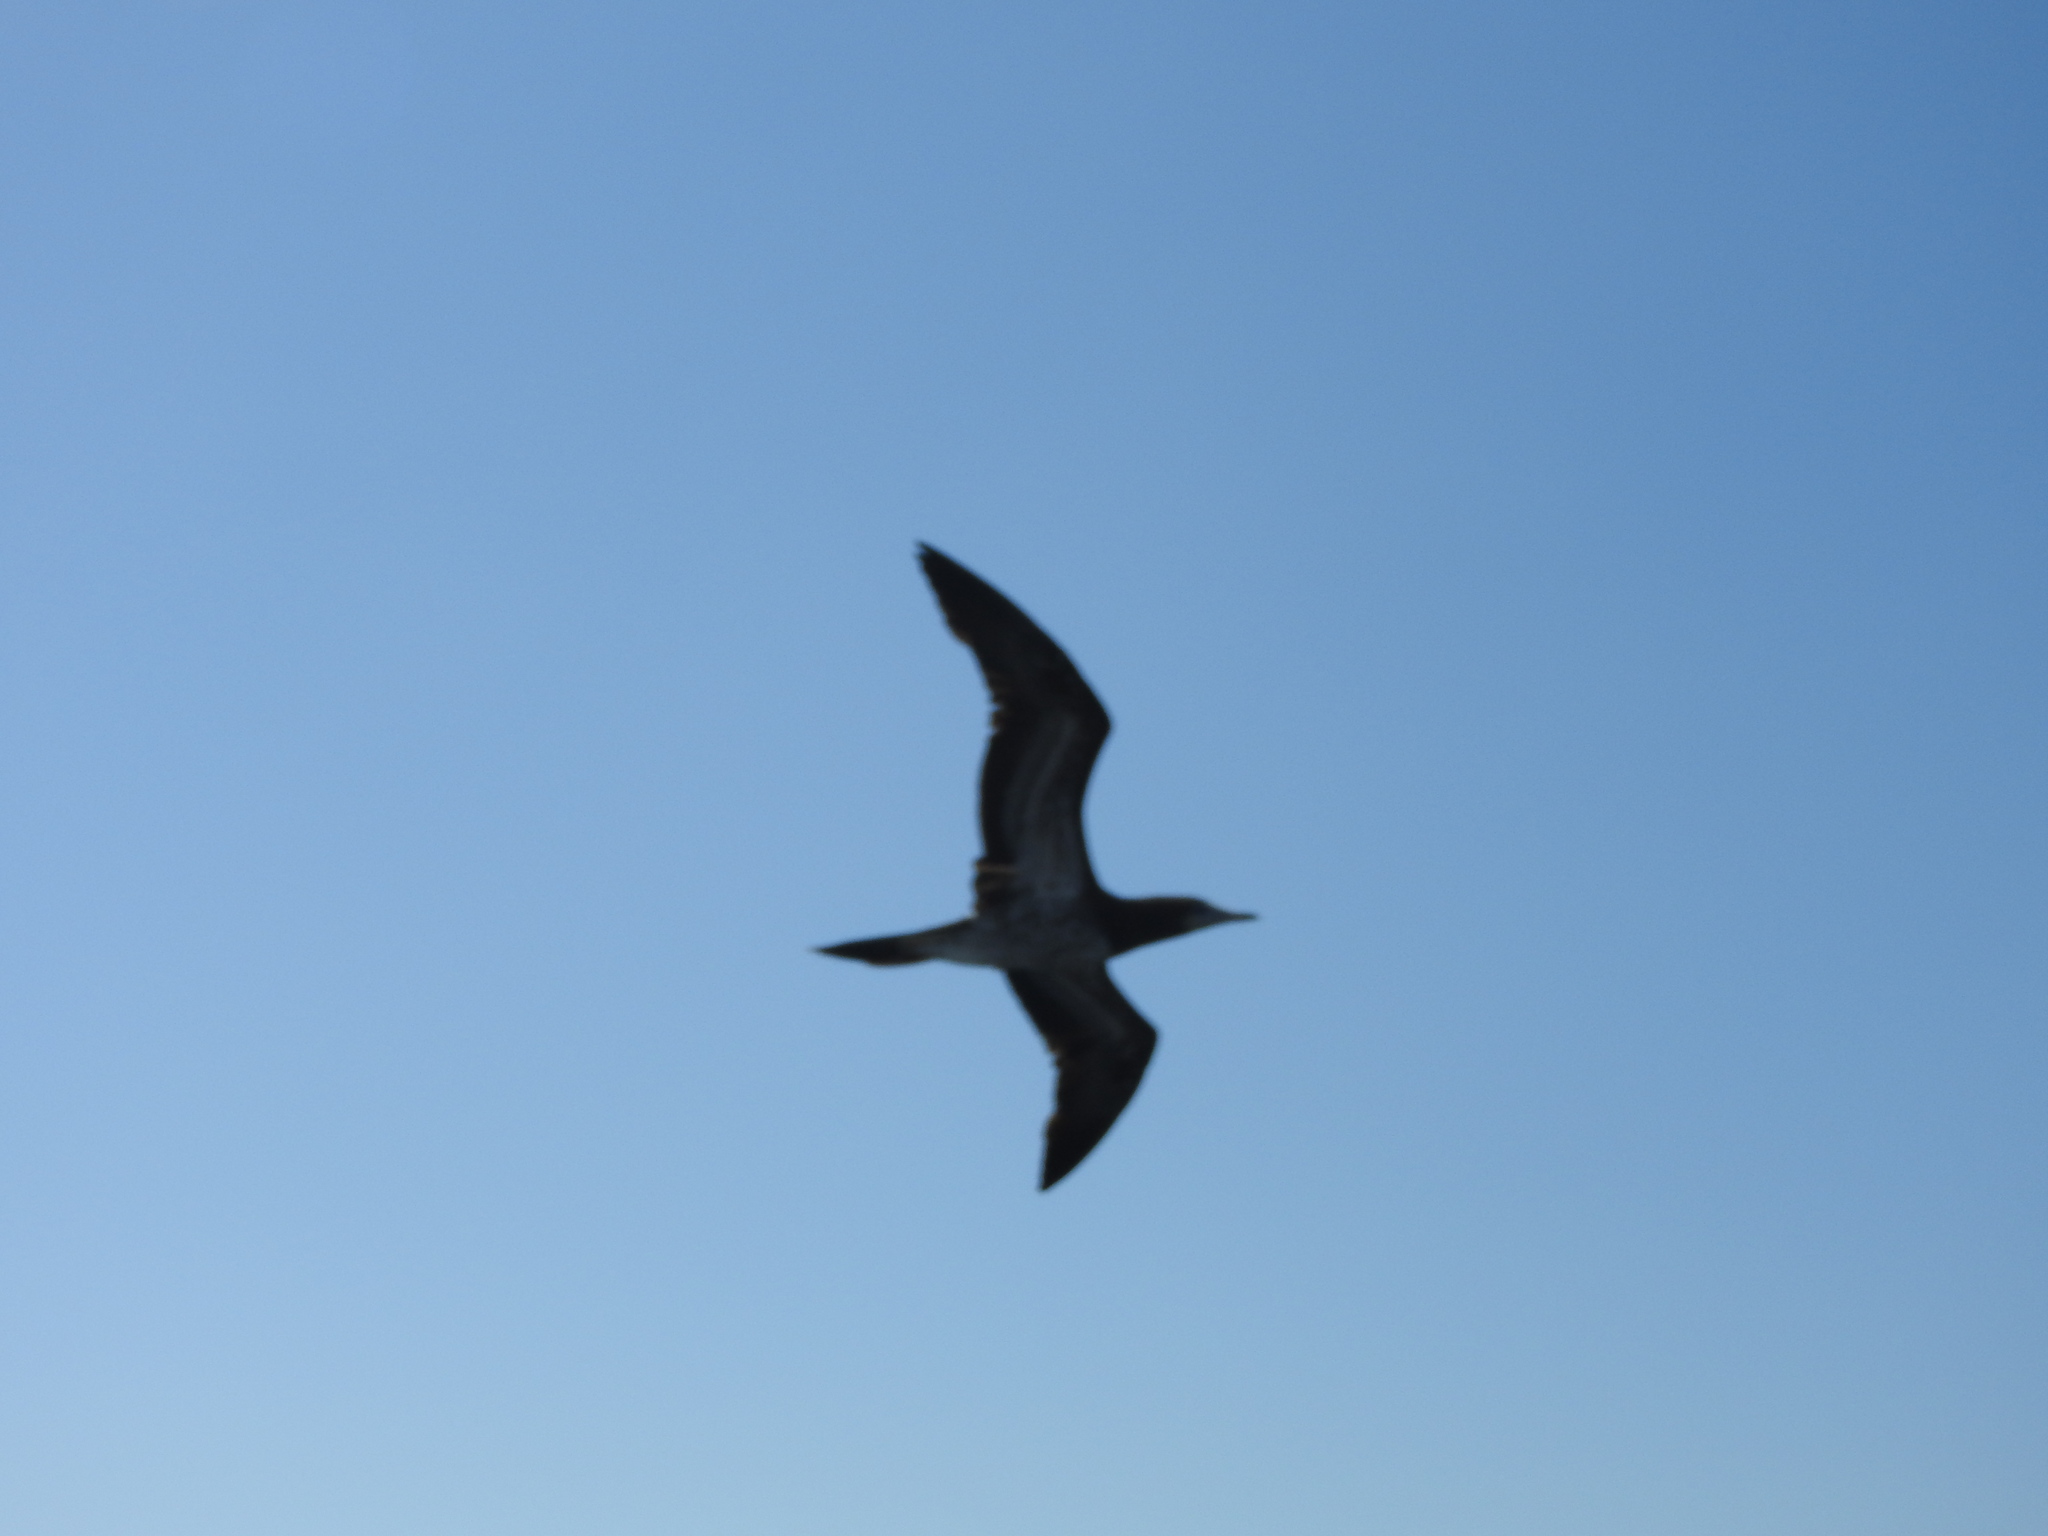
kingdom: Animalia
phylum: Chordata
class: Aves
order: Suliformes
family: Sulidae
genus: Sula
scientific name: Sula leucogaster
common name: Brown booby
